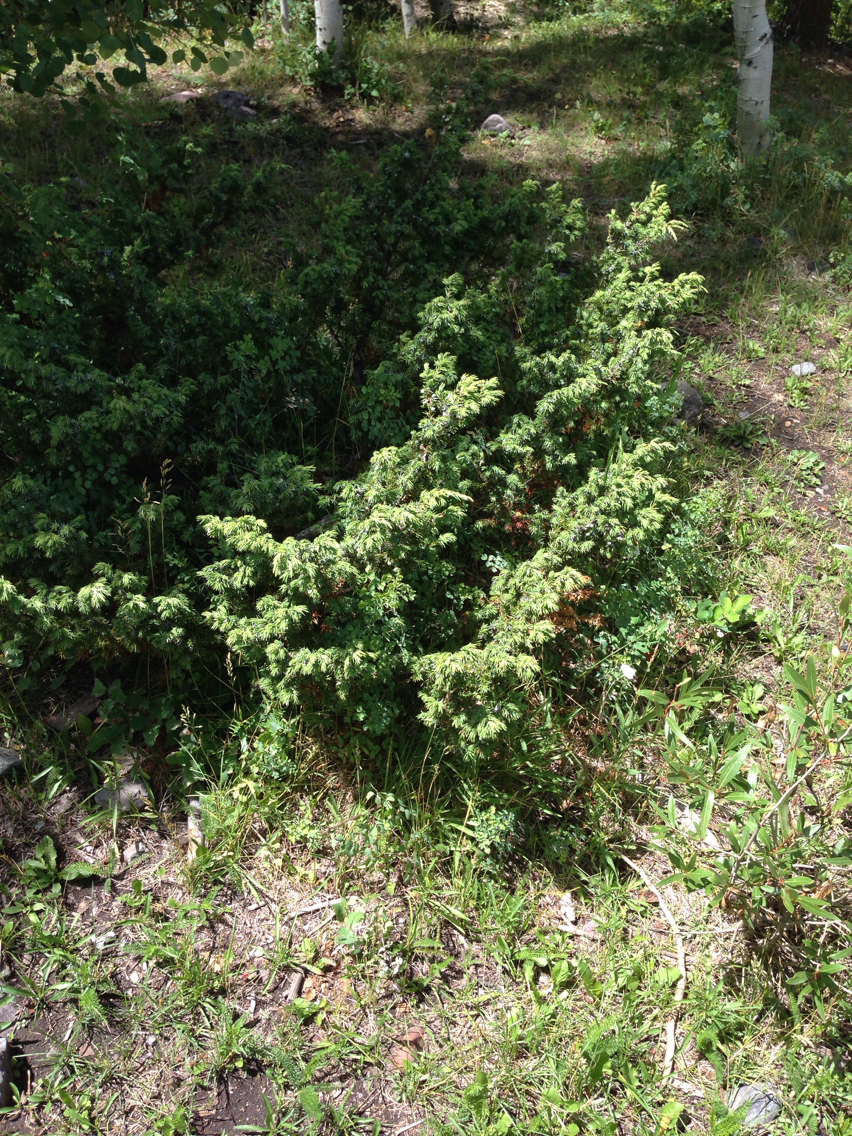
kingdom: Plantae
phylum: Tracheophyta
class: Pinopsida
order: Pinales
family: Cupressaceae
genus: Juniperus
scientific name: Juniperus communis
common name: Common juniper
